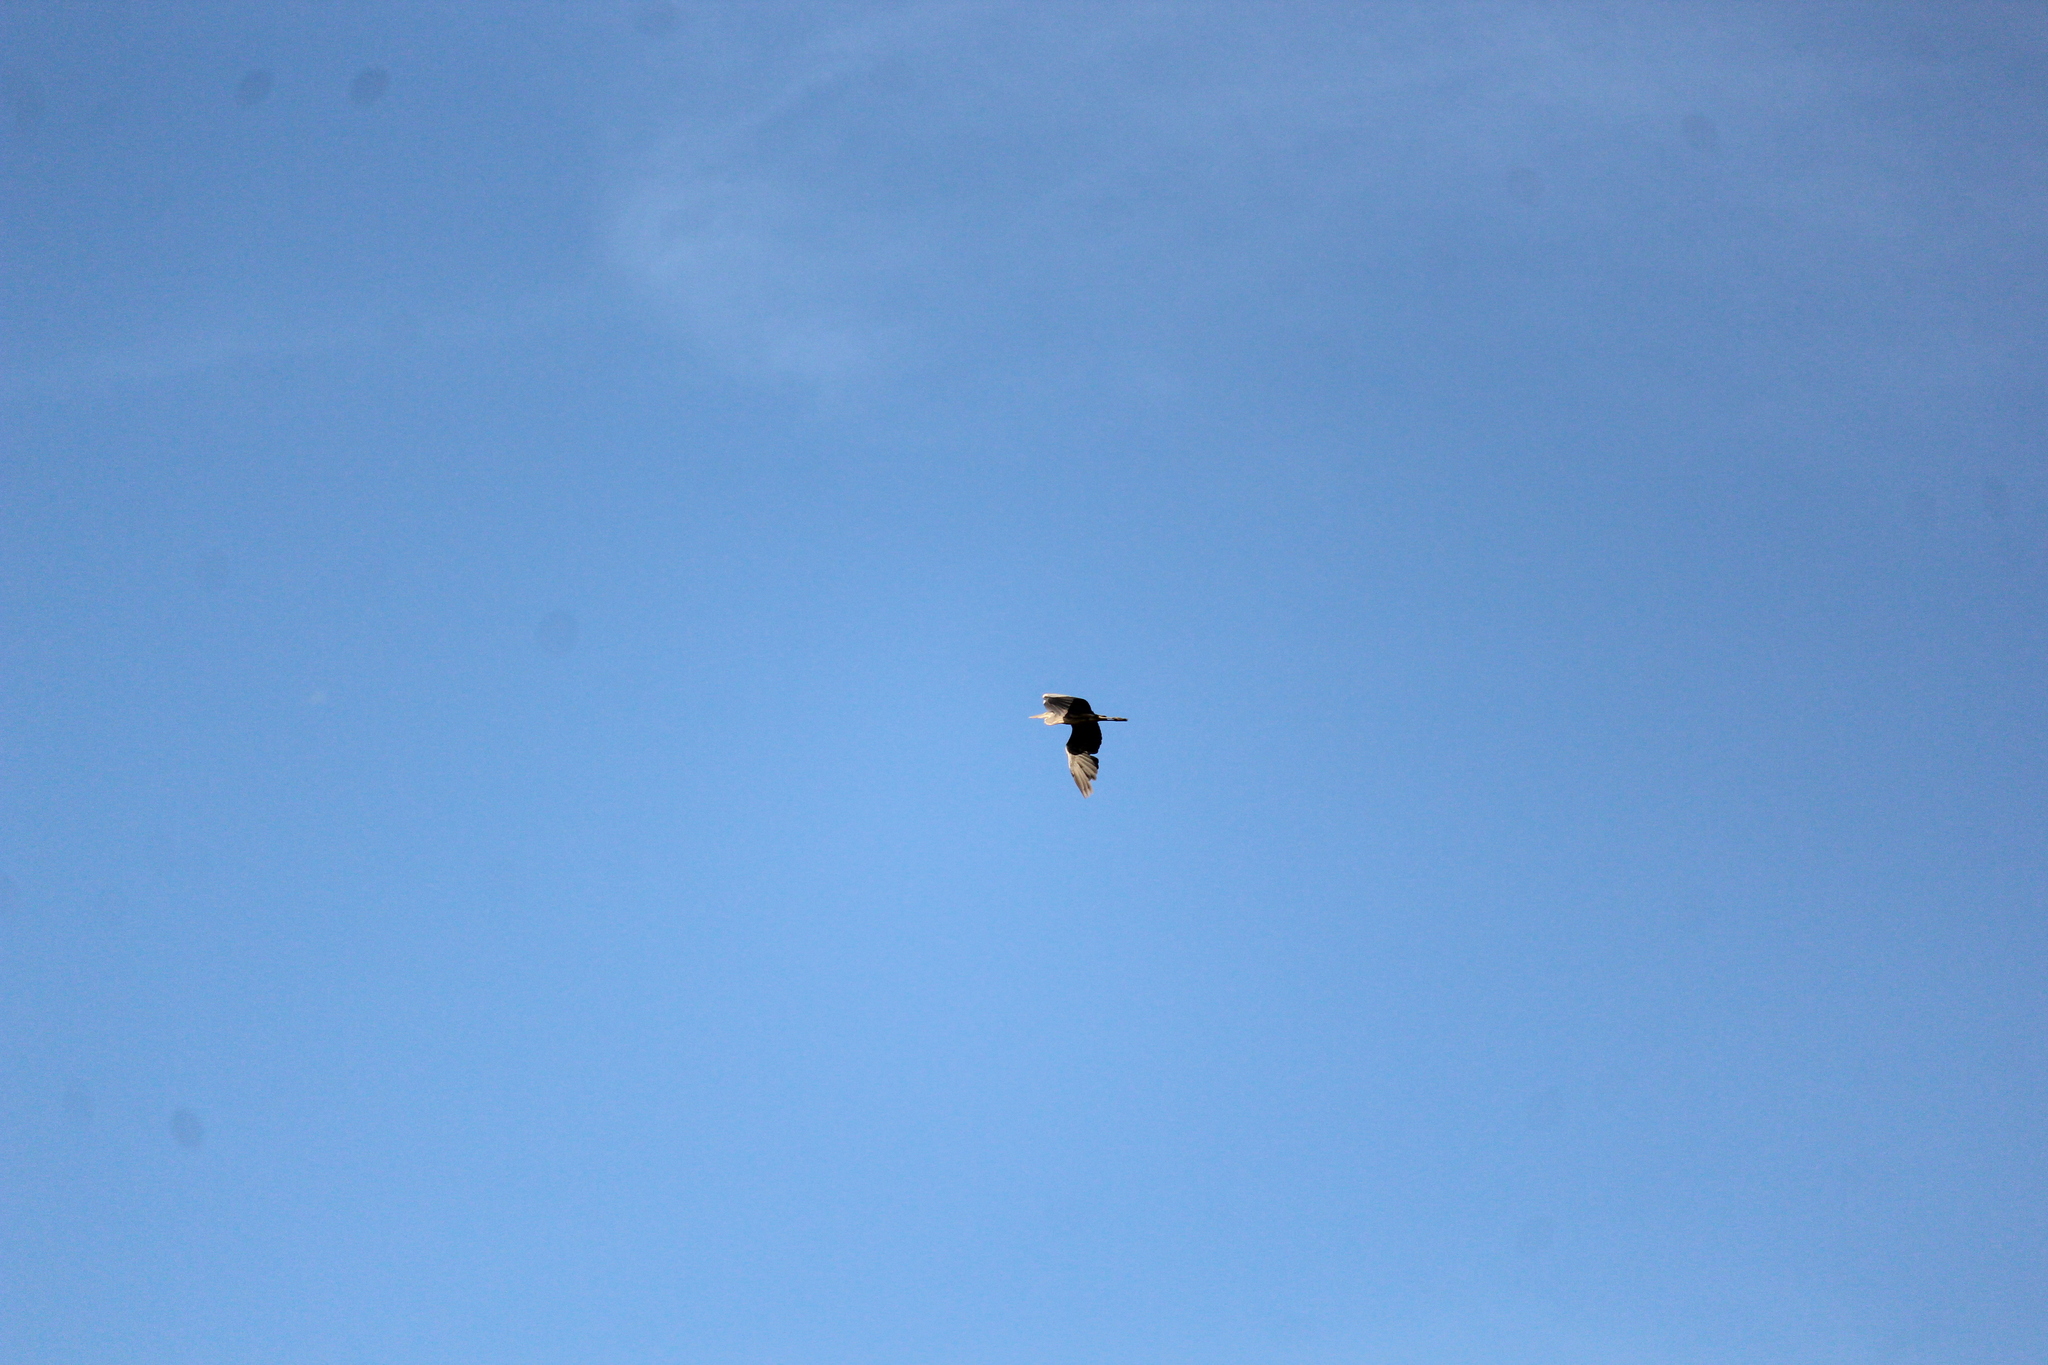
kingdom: Animalia
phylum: Chordata
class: Aves
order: Pelecaniformes
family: Ardeidae
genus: Ardea
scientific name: Ardea cinerea
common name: Grey heron
